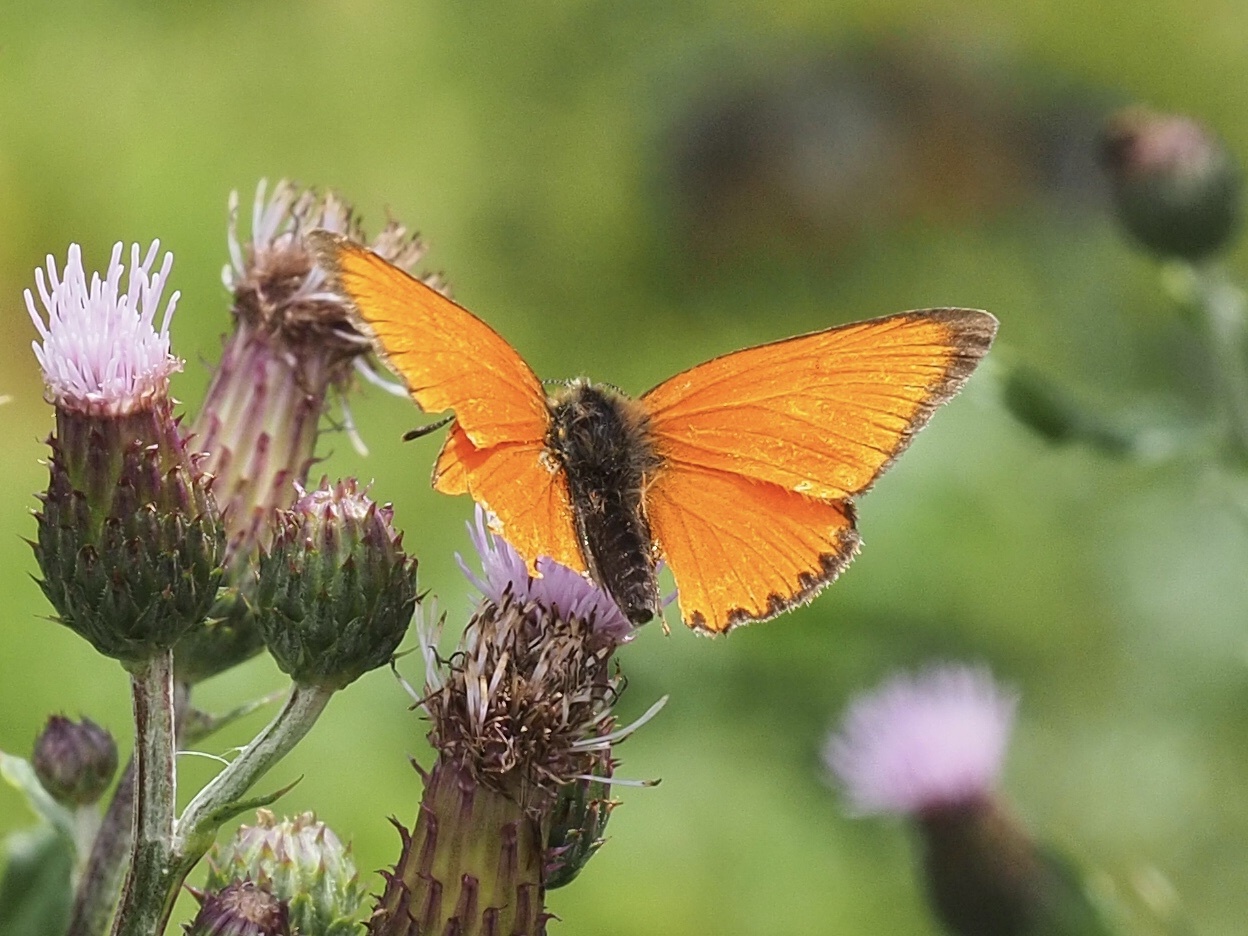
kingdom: Animalia
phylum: Arthropoda
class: Insecta
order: Lepidoptera
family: Lycaenidae
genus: Lycaena
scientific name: Lycaena virgaureae
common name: Scarce copper
